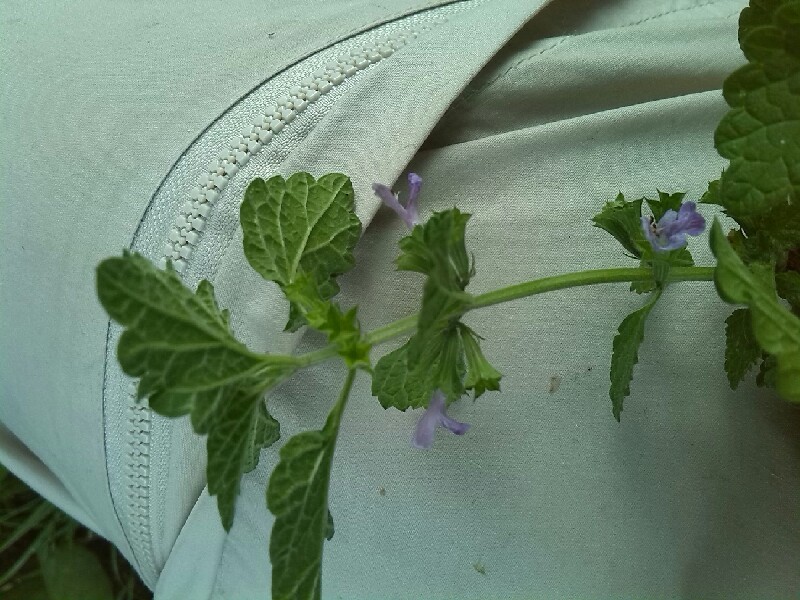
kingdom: Plantae
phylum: Tracheophyta
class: Magnoliopsida
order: Lamiales
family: Lamiaceae
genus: Ballota
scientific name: Ballota nigra
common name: Black horehound
